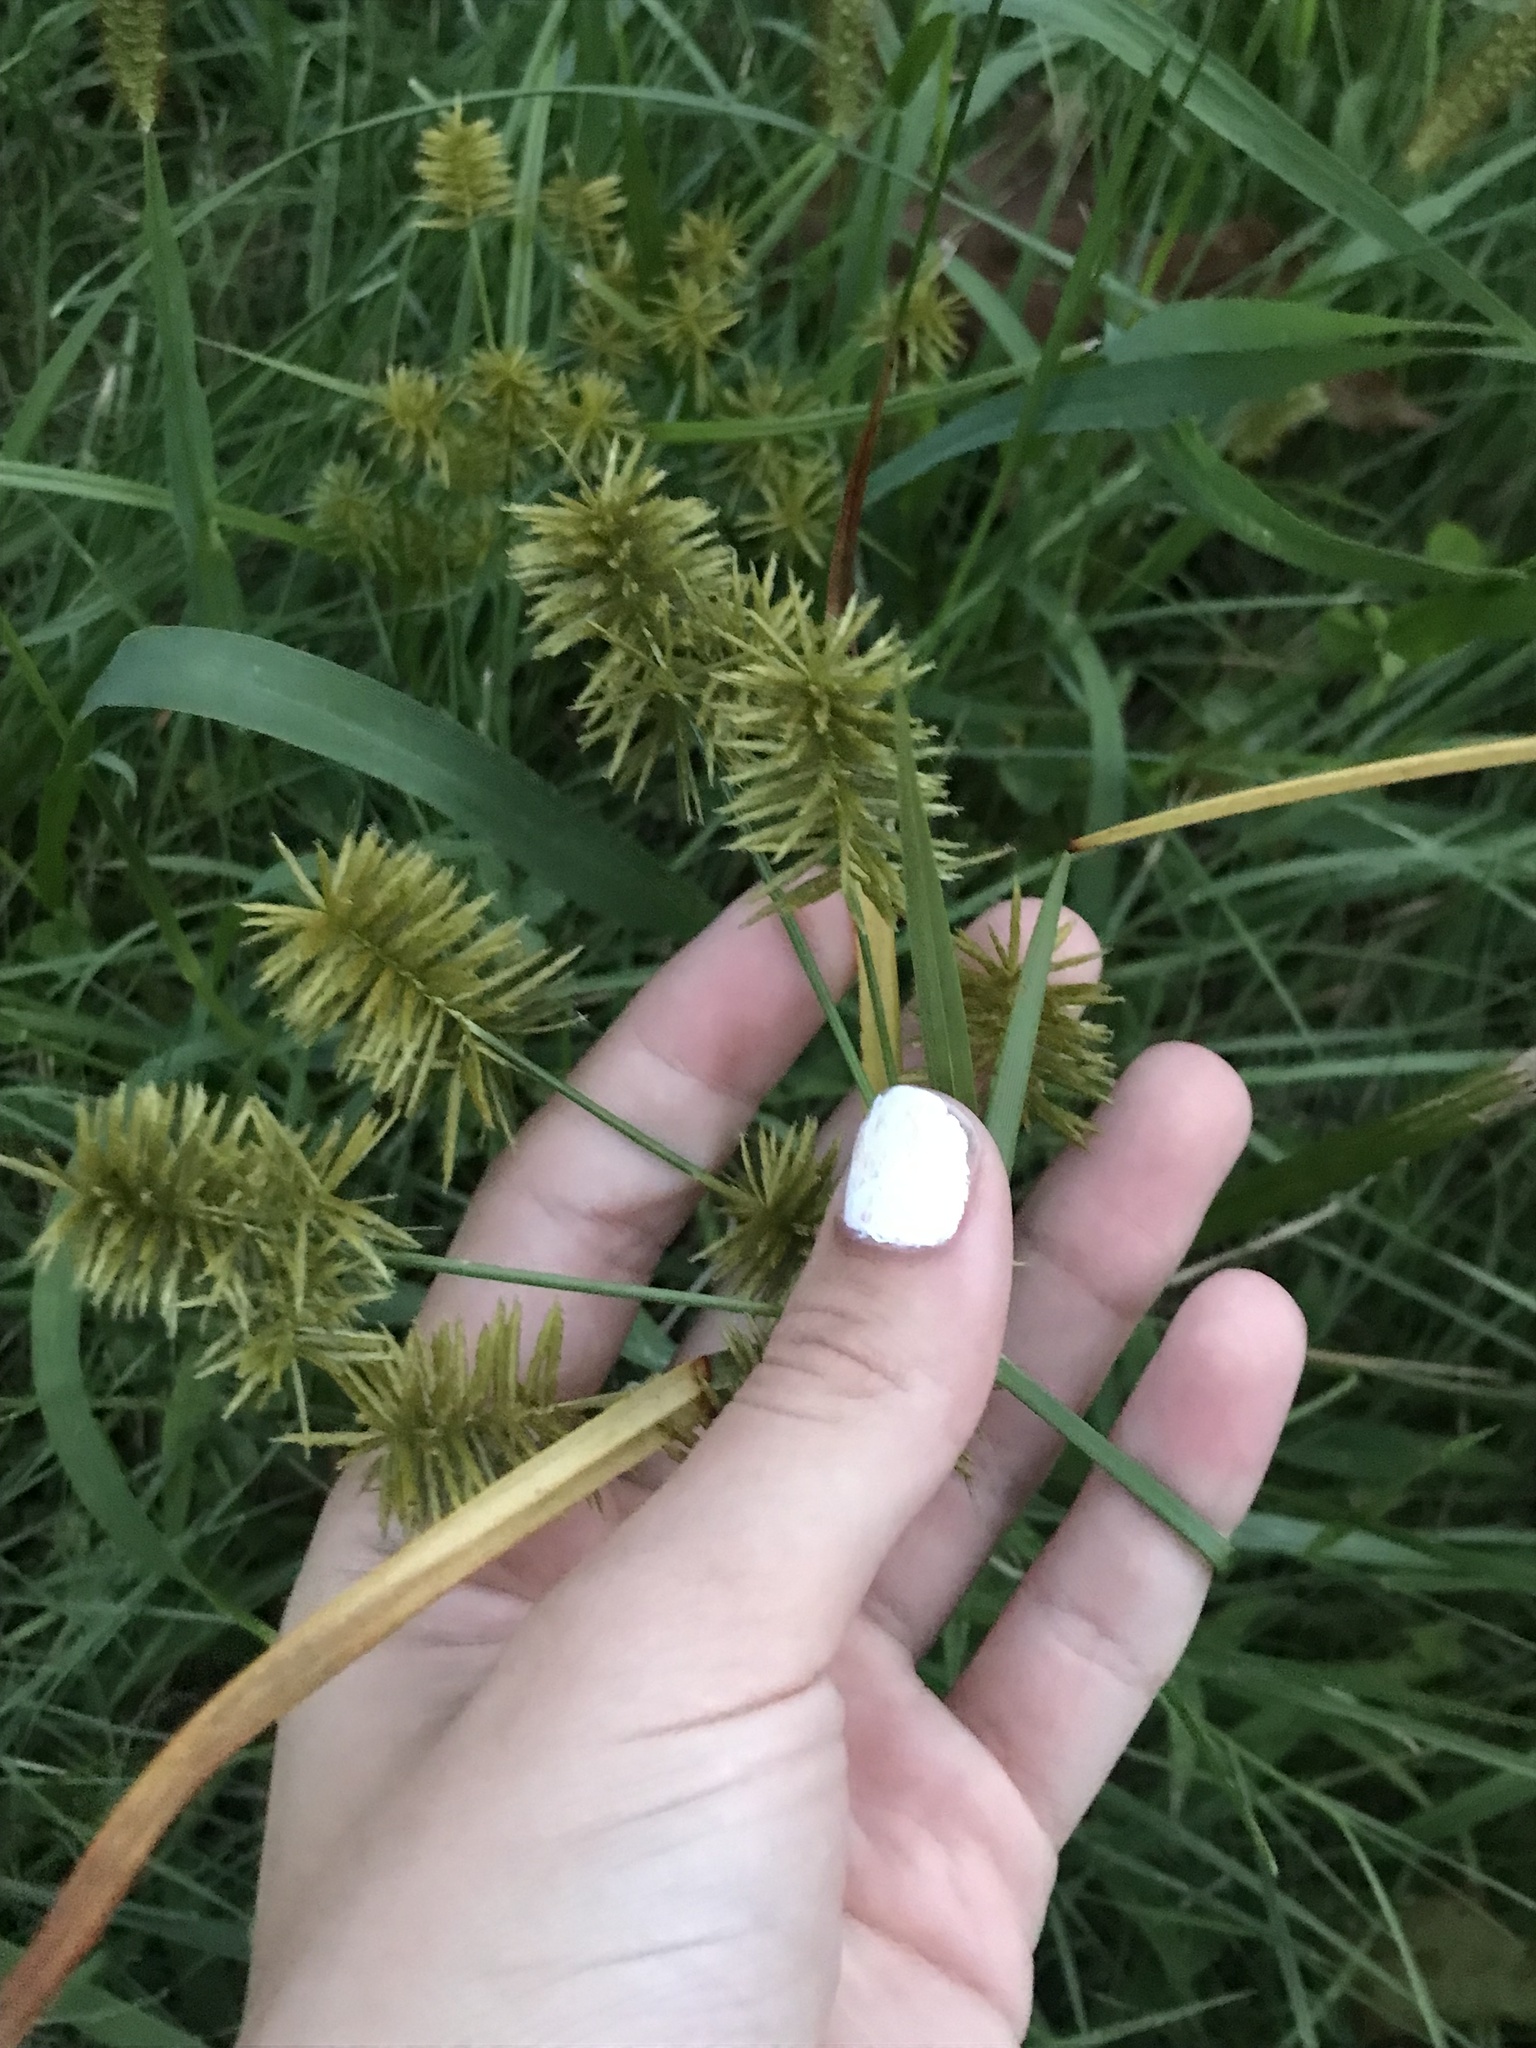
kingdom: Plantae
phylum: Tracheophyta
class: Liliopsida
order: Poales
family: Cyperaceae
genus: Cyperus
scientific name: Cyperus strigosus
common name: False nutsedge
